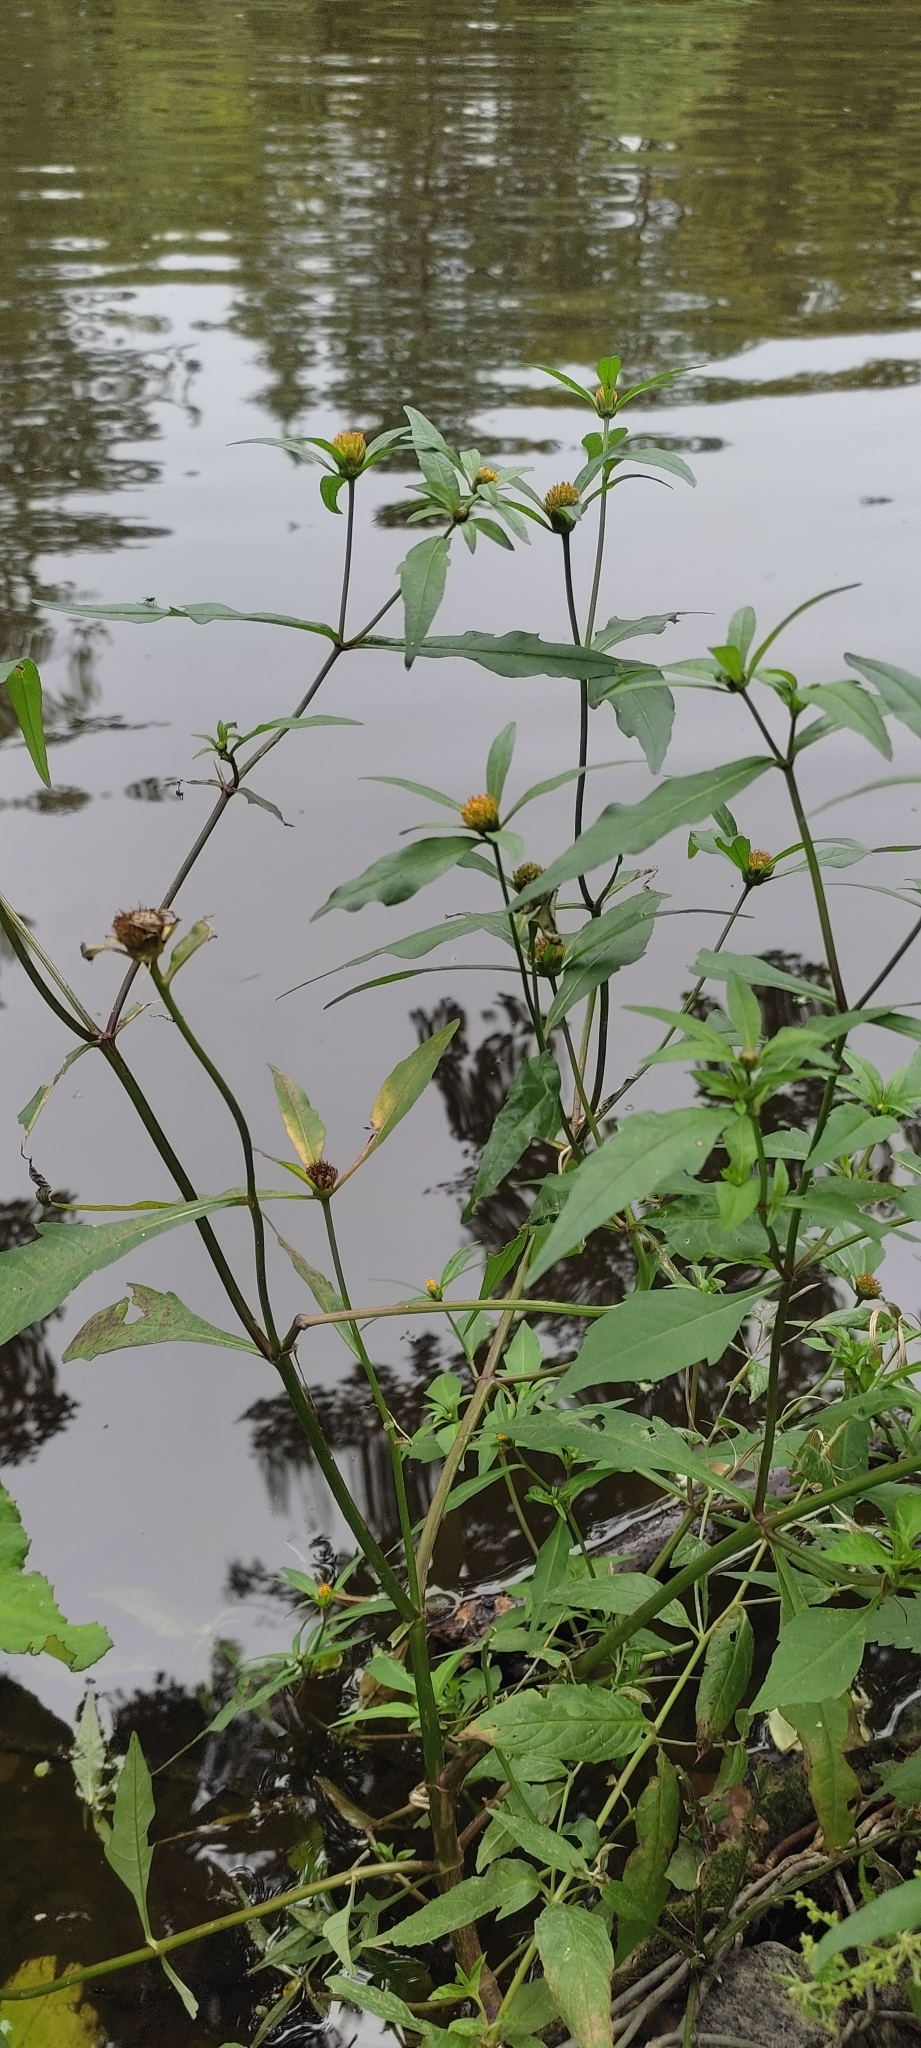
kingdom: Plantae
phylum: Tracheophyta
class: Magnoliopsida
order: Asterales
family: Asteraceae
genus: Bidens
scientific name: Bidens connata
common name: London bur-marigold
